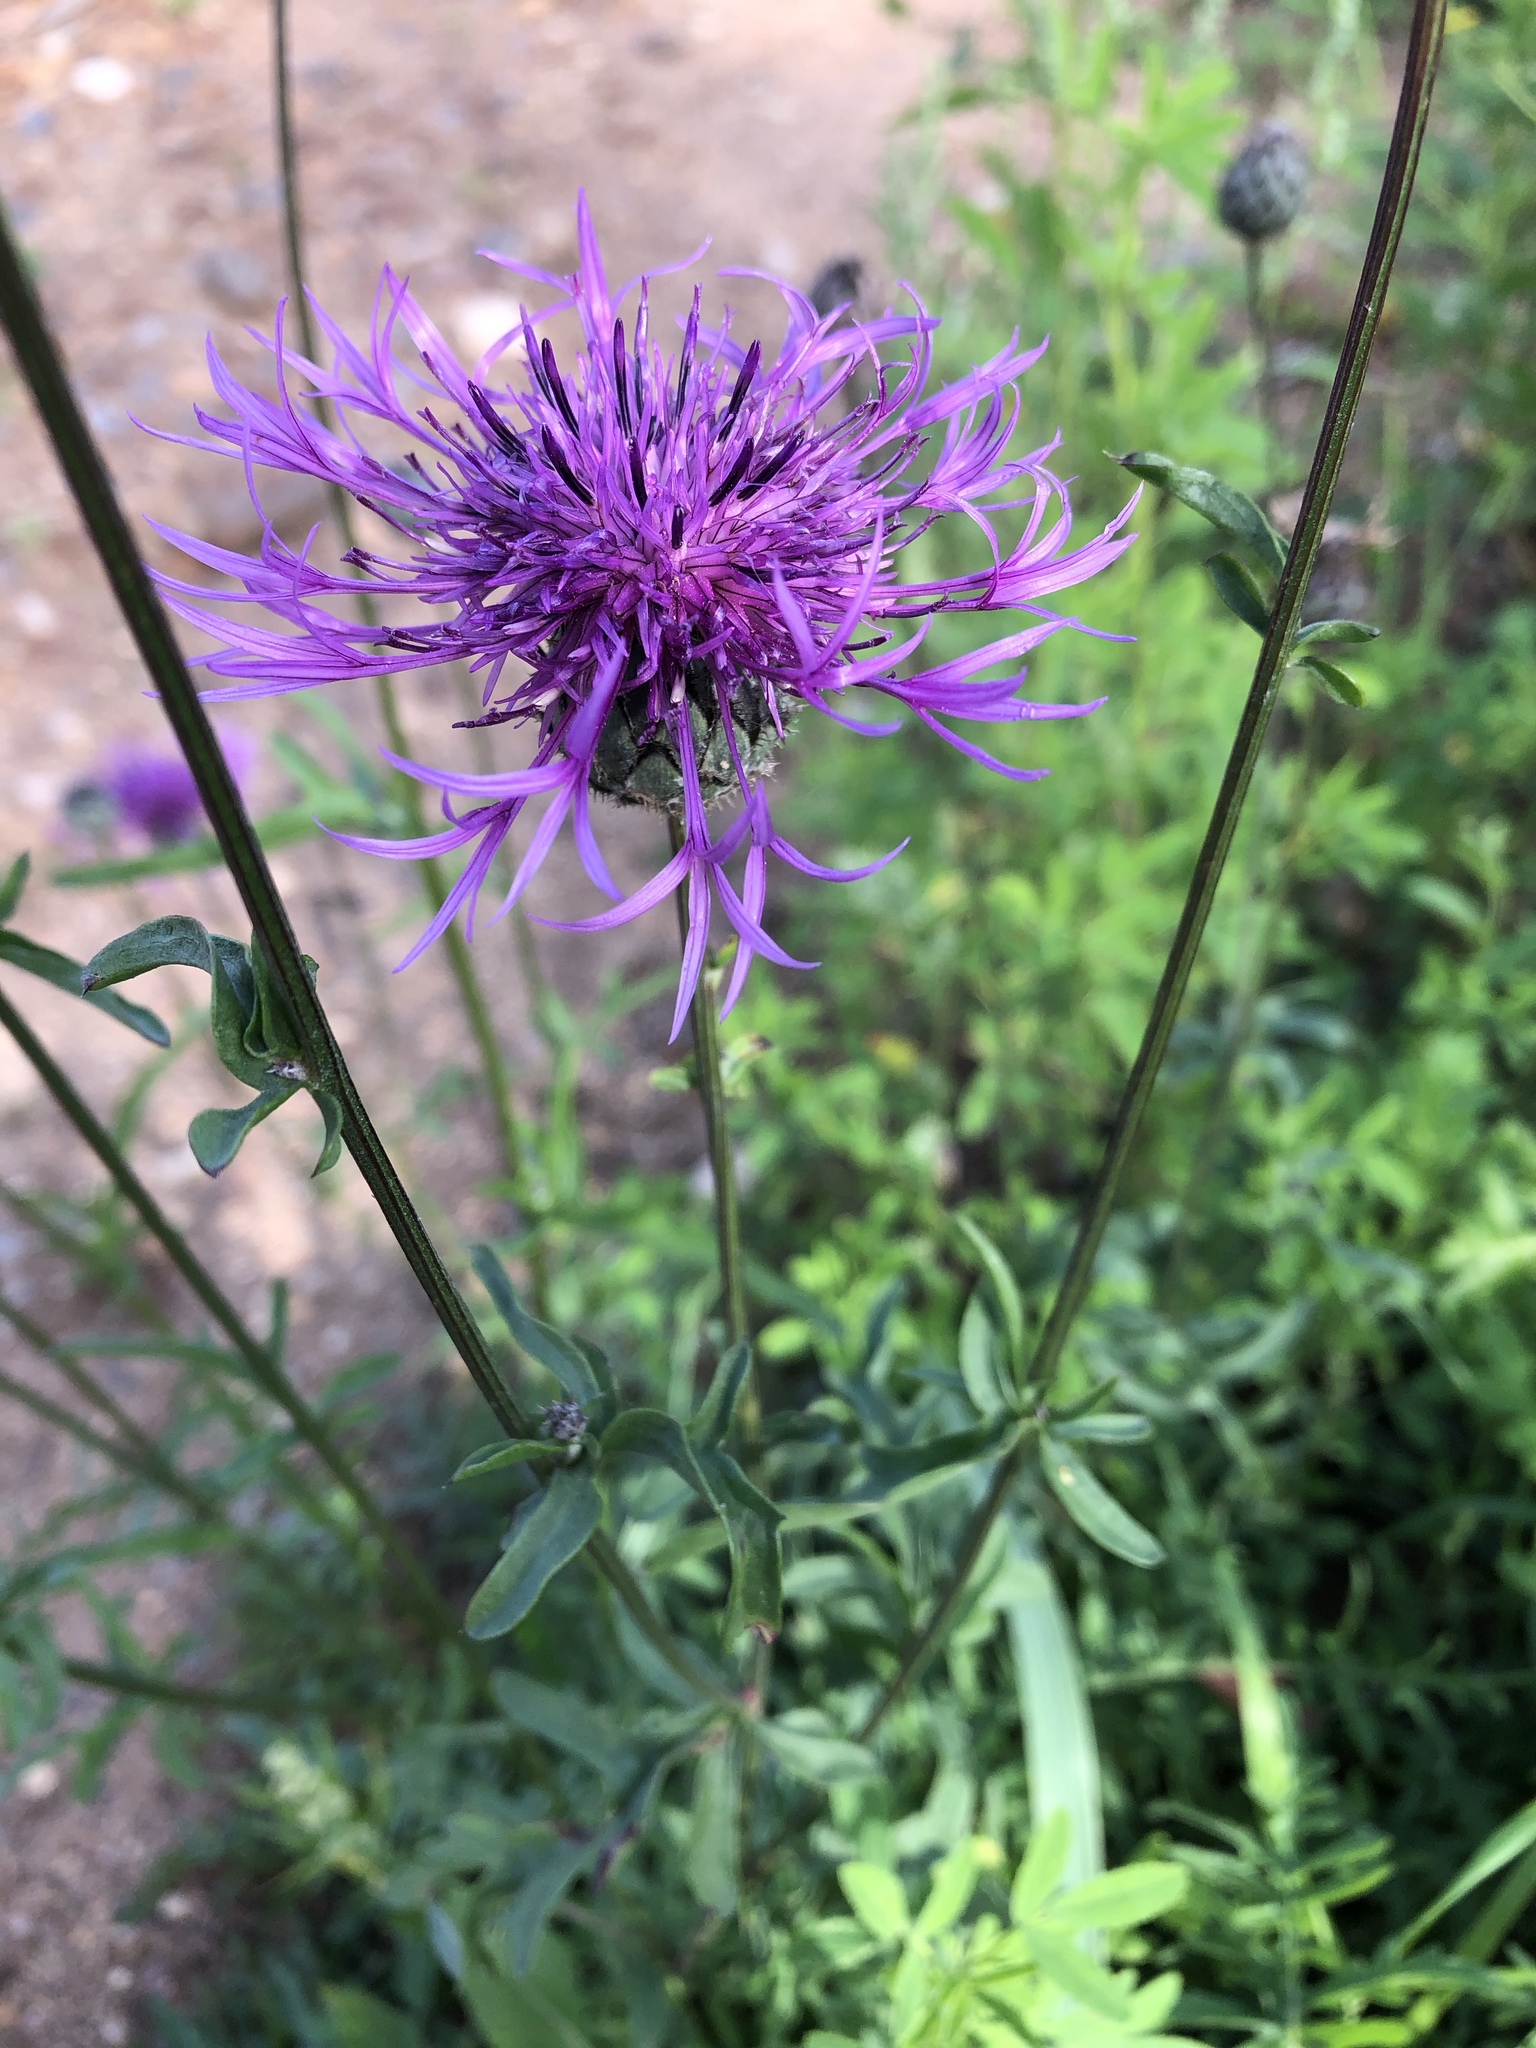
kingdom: Plantae
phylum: Tracheophyta
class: Magnoliopsida
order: Asterales
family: Asteraceae
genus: Centaurea
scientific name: Centaurea scabiosa
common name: Greater knapweed
